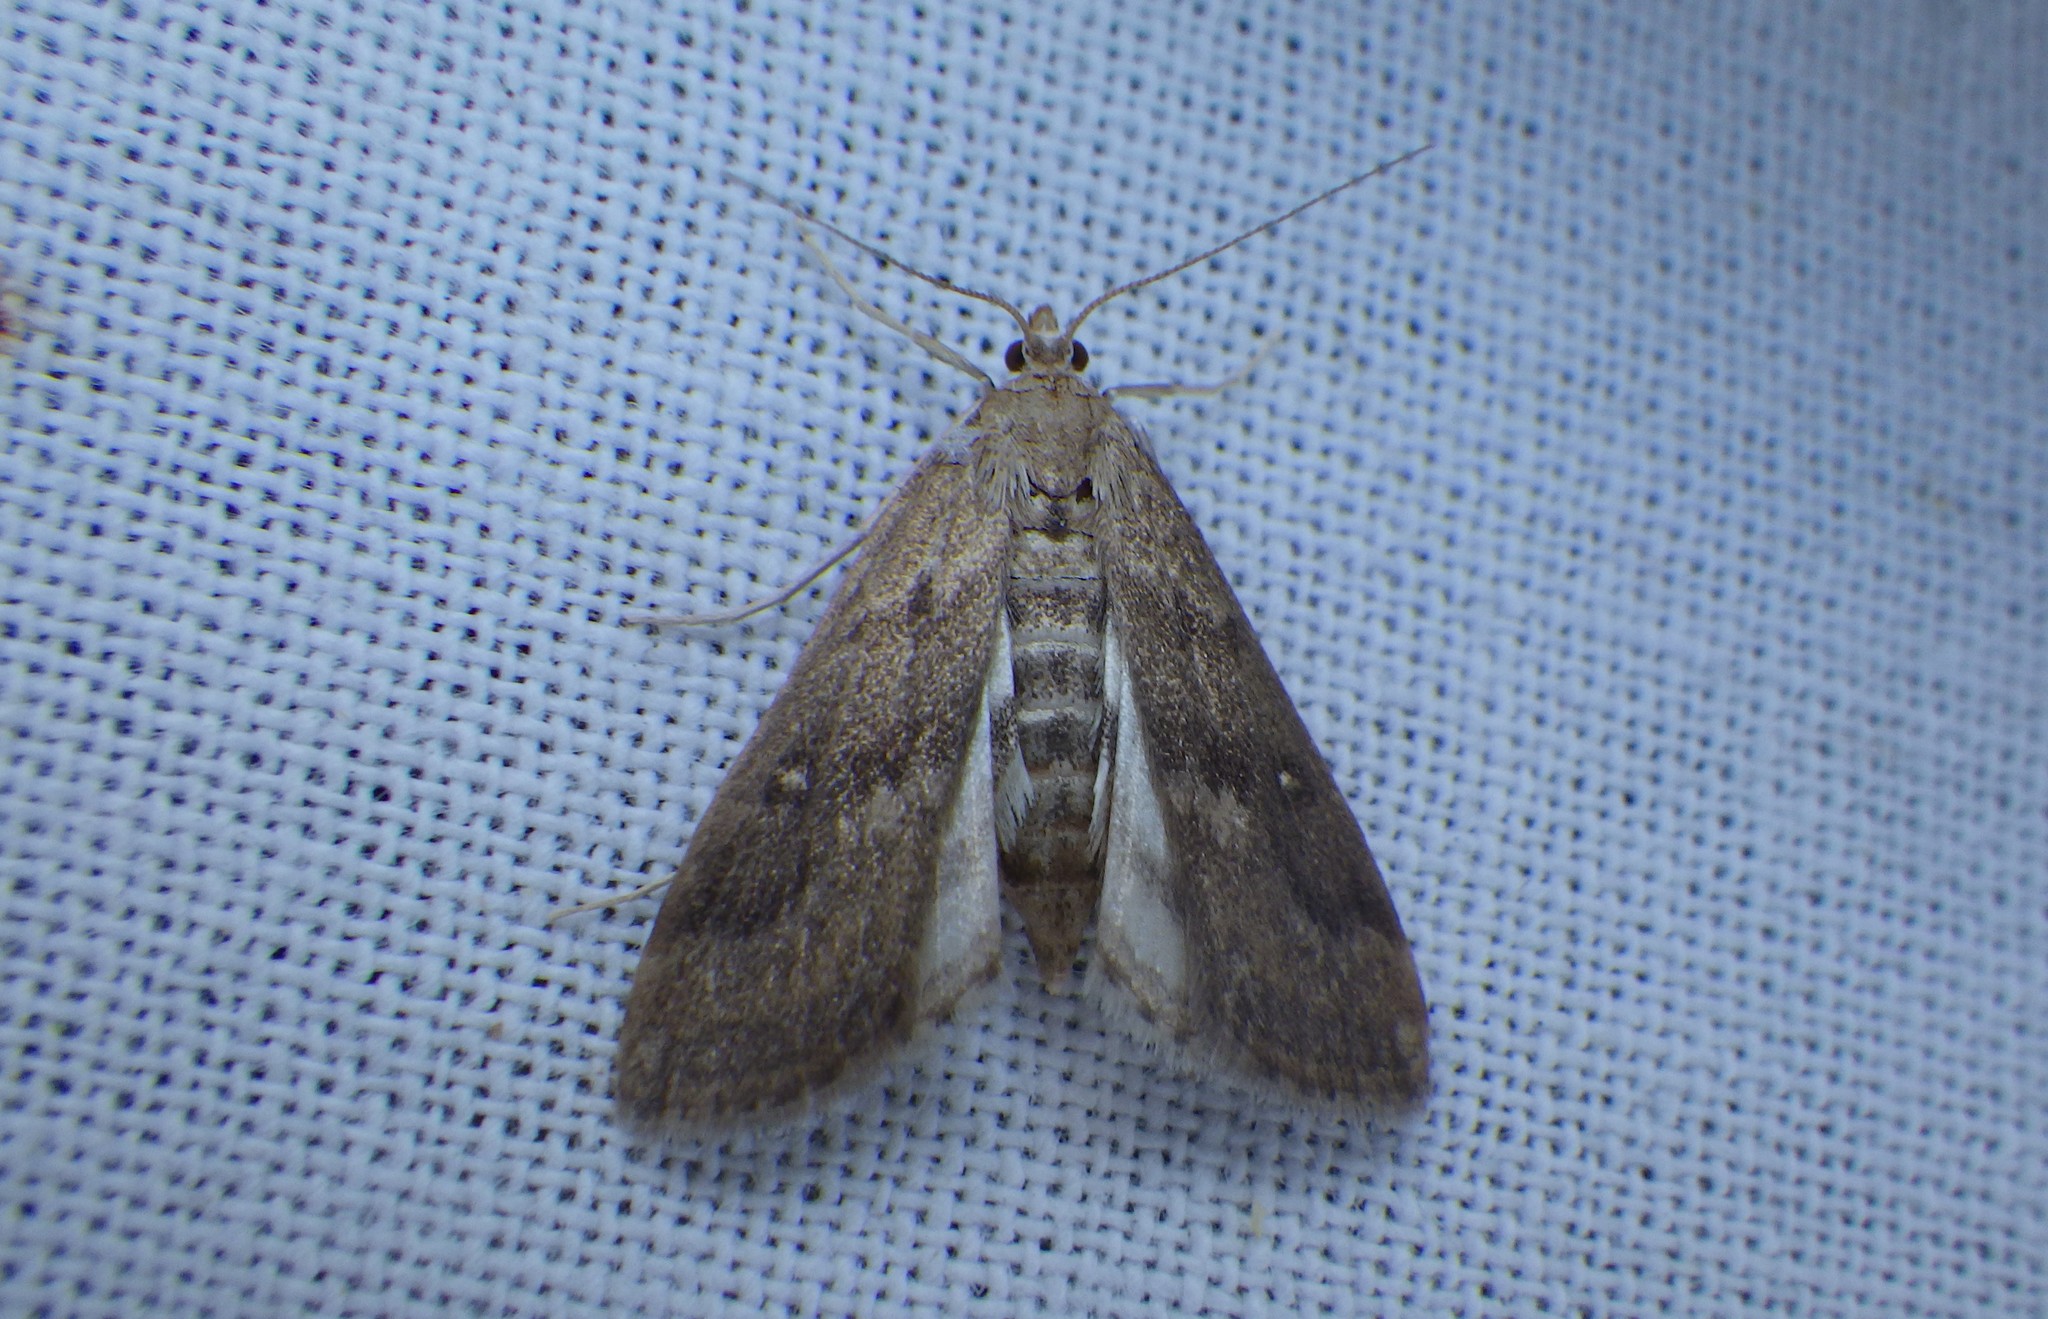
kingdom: Animalia
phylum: Arthropoda
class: Insecta
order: Lepidoptera
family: Crambidae
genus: Parapoynx
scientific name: Parapoynx stratiotata
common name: Ringed china-mark
